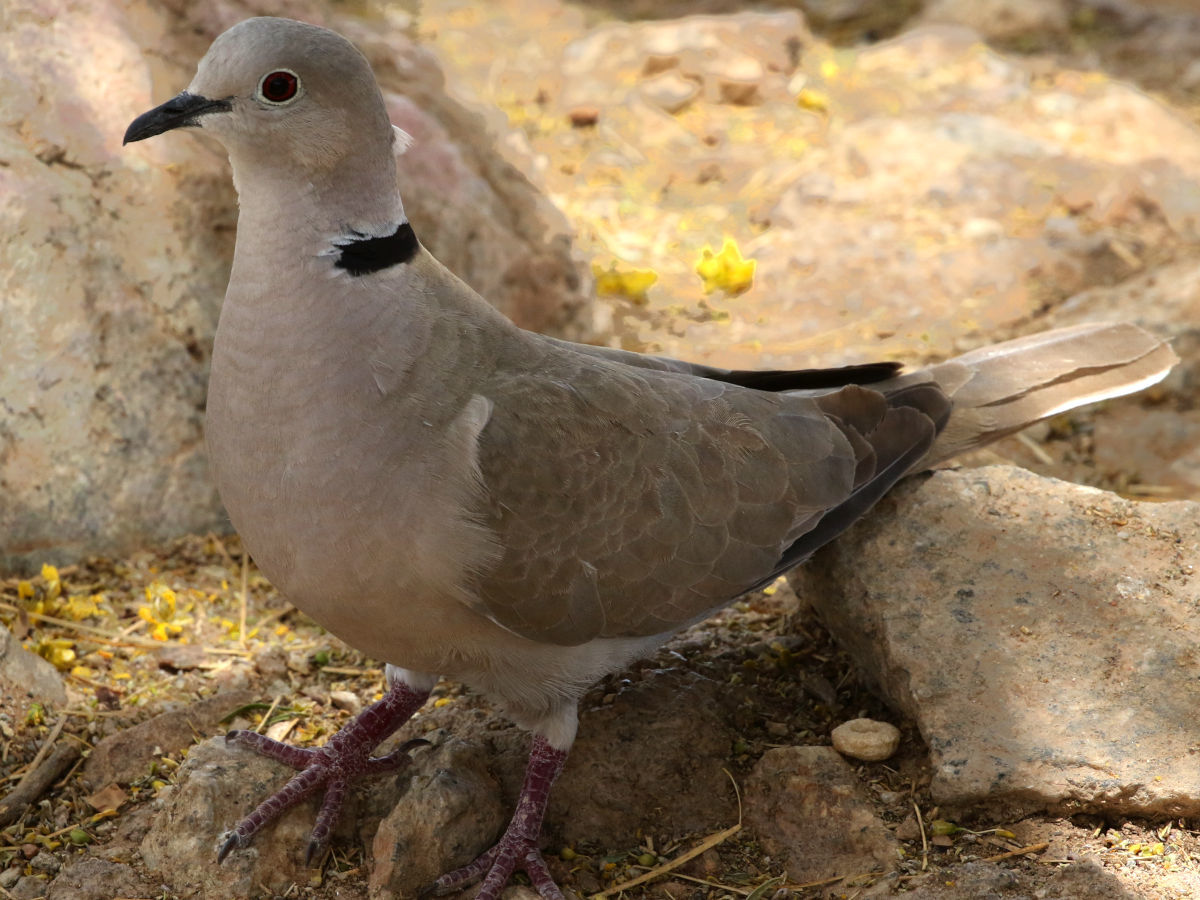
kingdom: Animalia
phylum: Chordata
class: Aves
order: Columbiformes
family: Columbidae
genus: Streptopelia
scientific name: Streptopelia decaocto
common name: Eurasian collared dove
